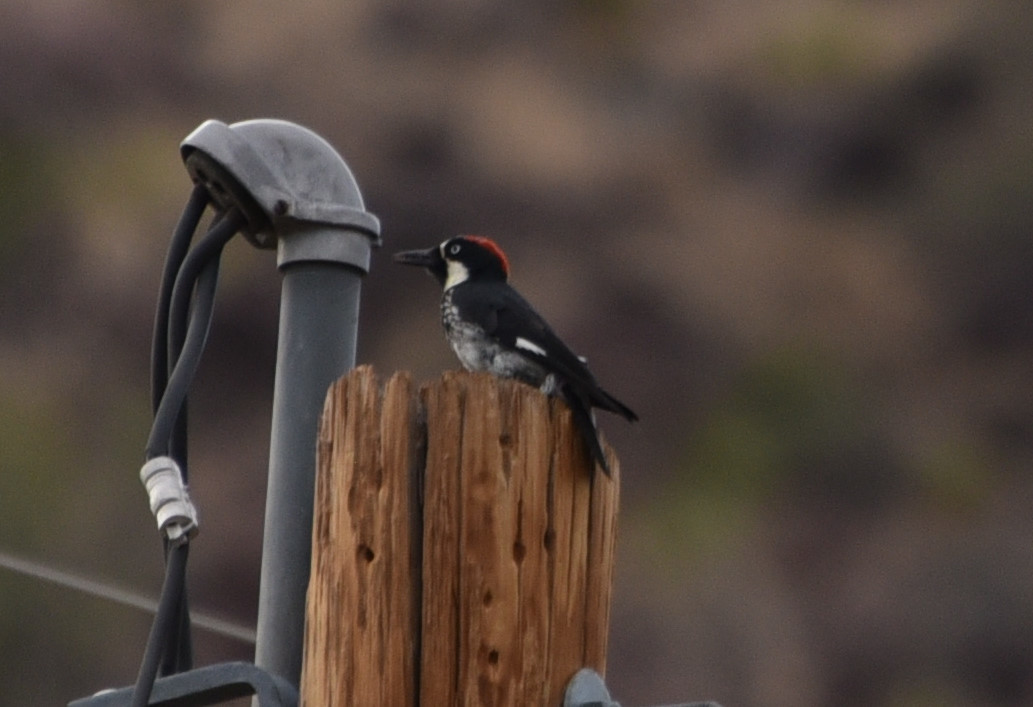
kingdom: Animalia
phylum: Chordata
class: Aves
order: Piciformes
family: Picidae
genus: Melanerpes
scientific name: Melanerpes formicivorus
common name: Acorn woodpecker
